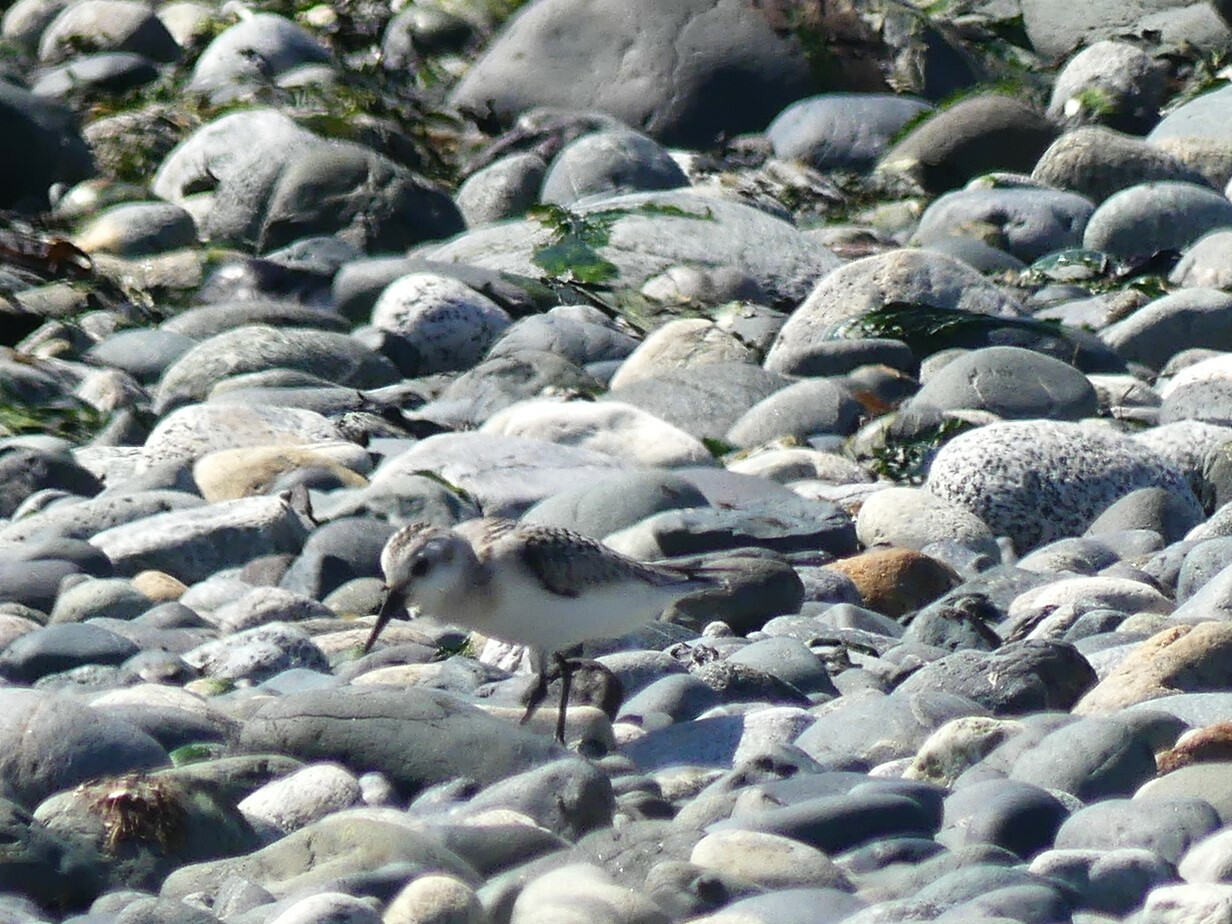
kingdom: Animalia
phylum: Chordata
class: Aves
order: Charadriiformes
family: Scolopacidae
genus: Calidris
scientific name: Calidris alba
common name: Sanderling
